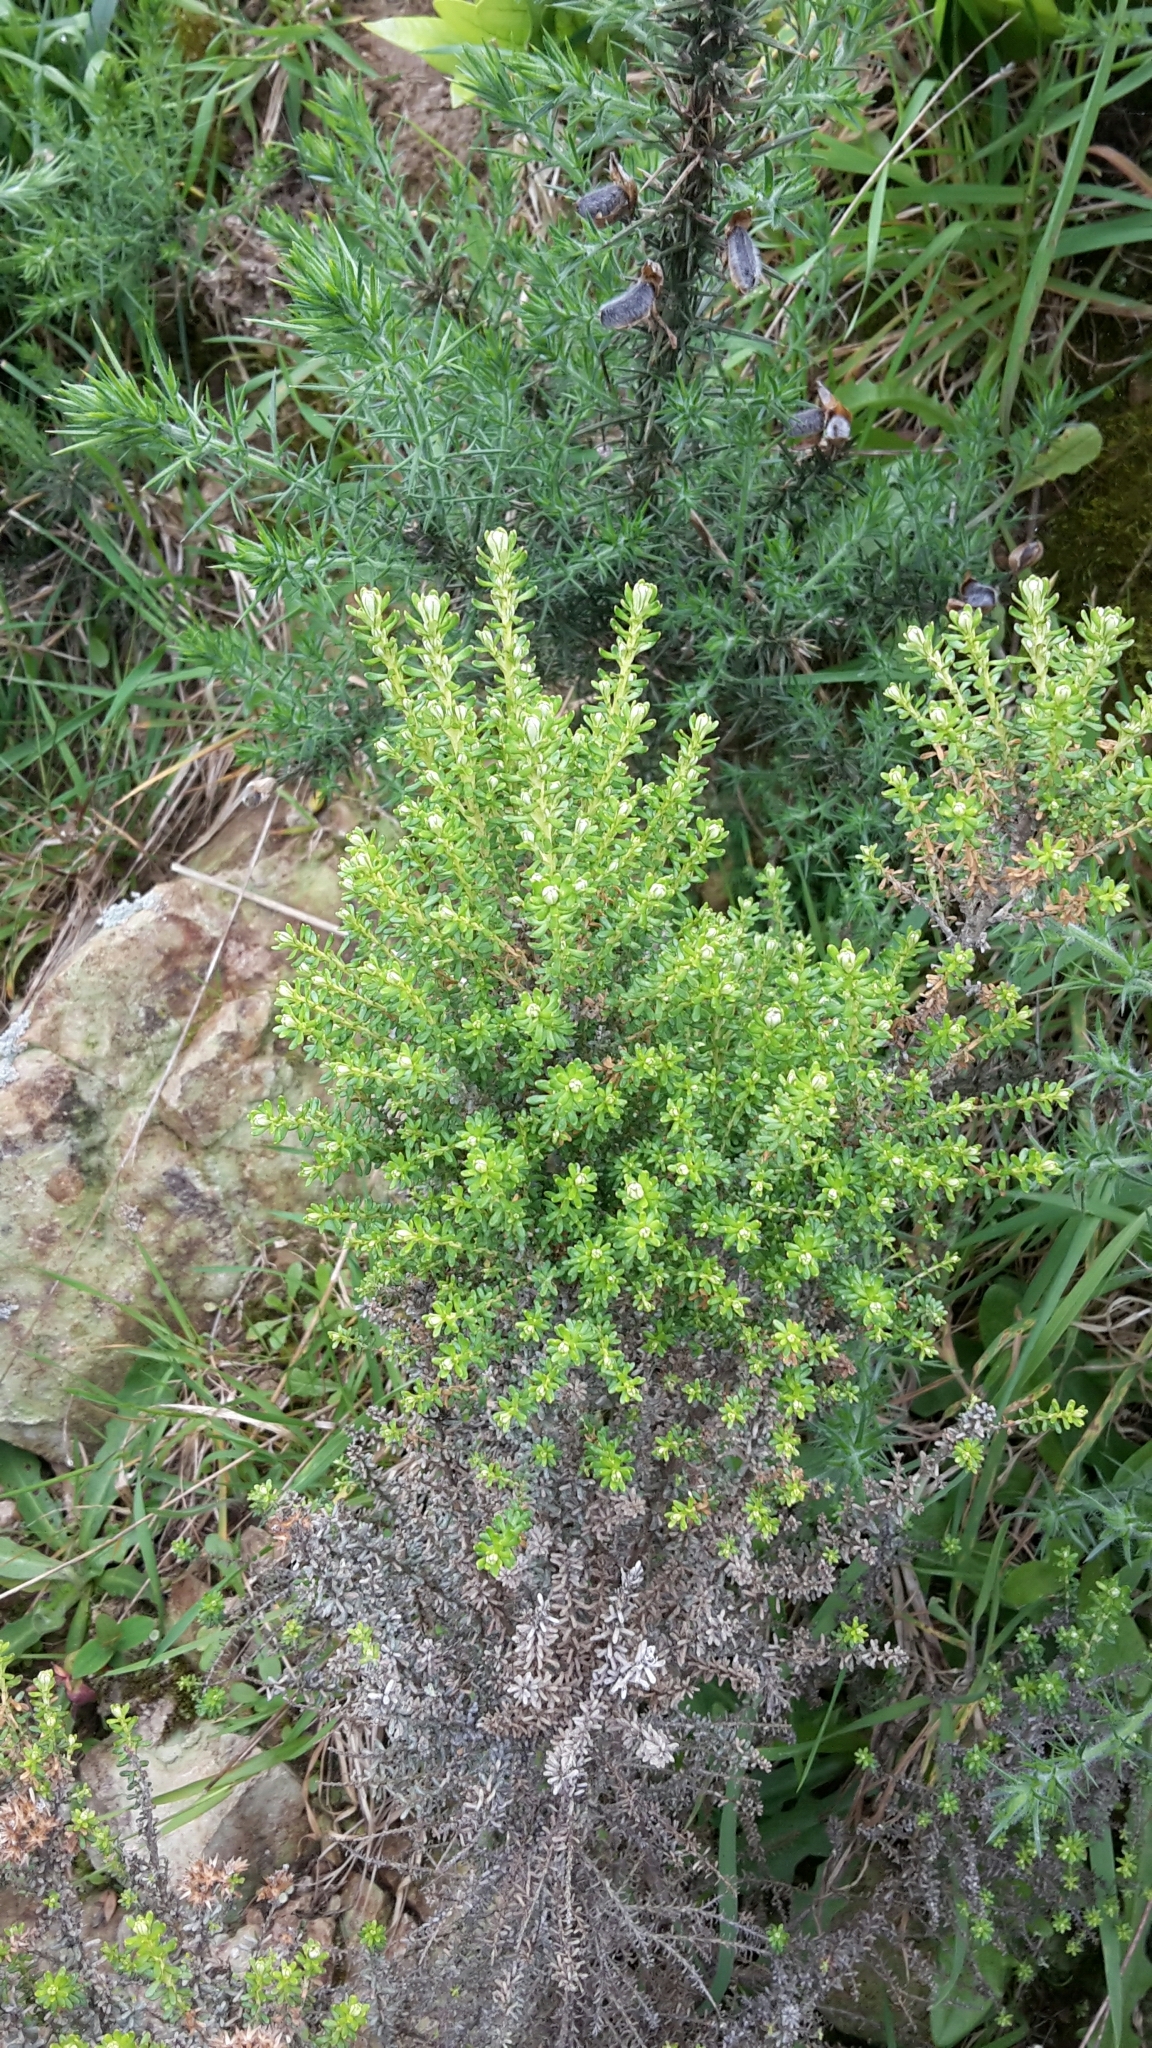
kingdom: Plantae
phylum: Tracheophyta
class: Magnoliopsida
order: Asterales
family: Asteraceae
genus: Ozothamnus
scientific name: Ozothamnus leptophyllus
